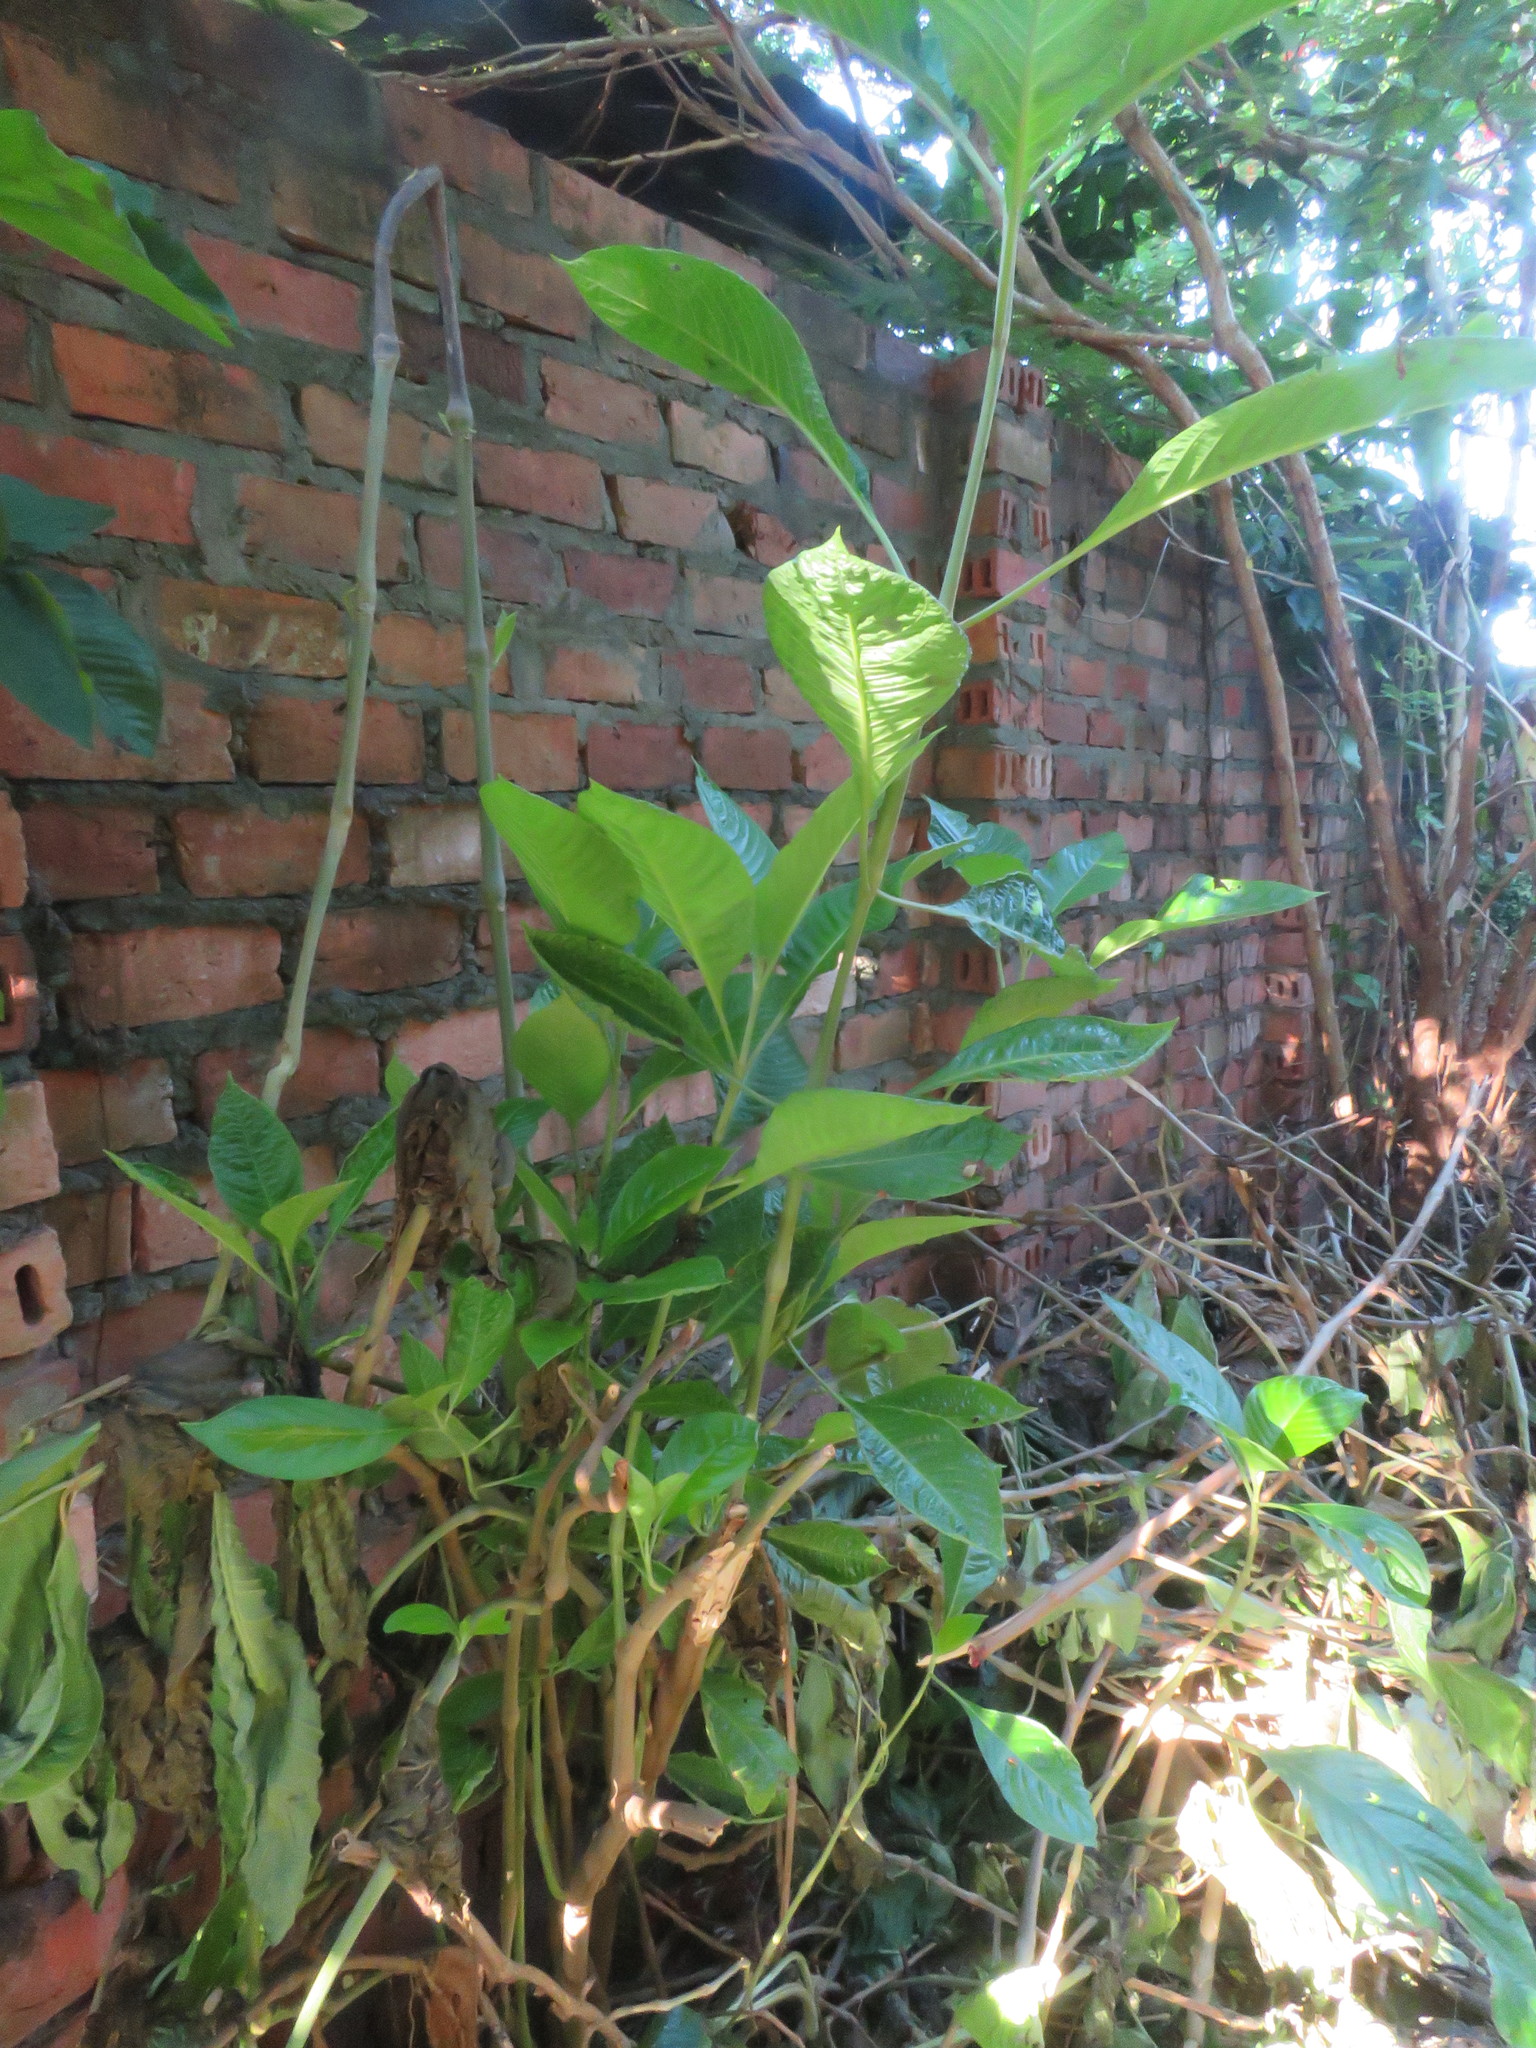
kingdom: Plantae
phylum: Tracheophyta
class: Magnoliopsida
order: Lamiales
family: Acanthaceae
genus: Megaskepasma
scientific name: Megaskepasma erythrochlamys
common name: Brazilian red-cloak
